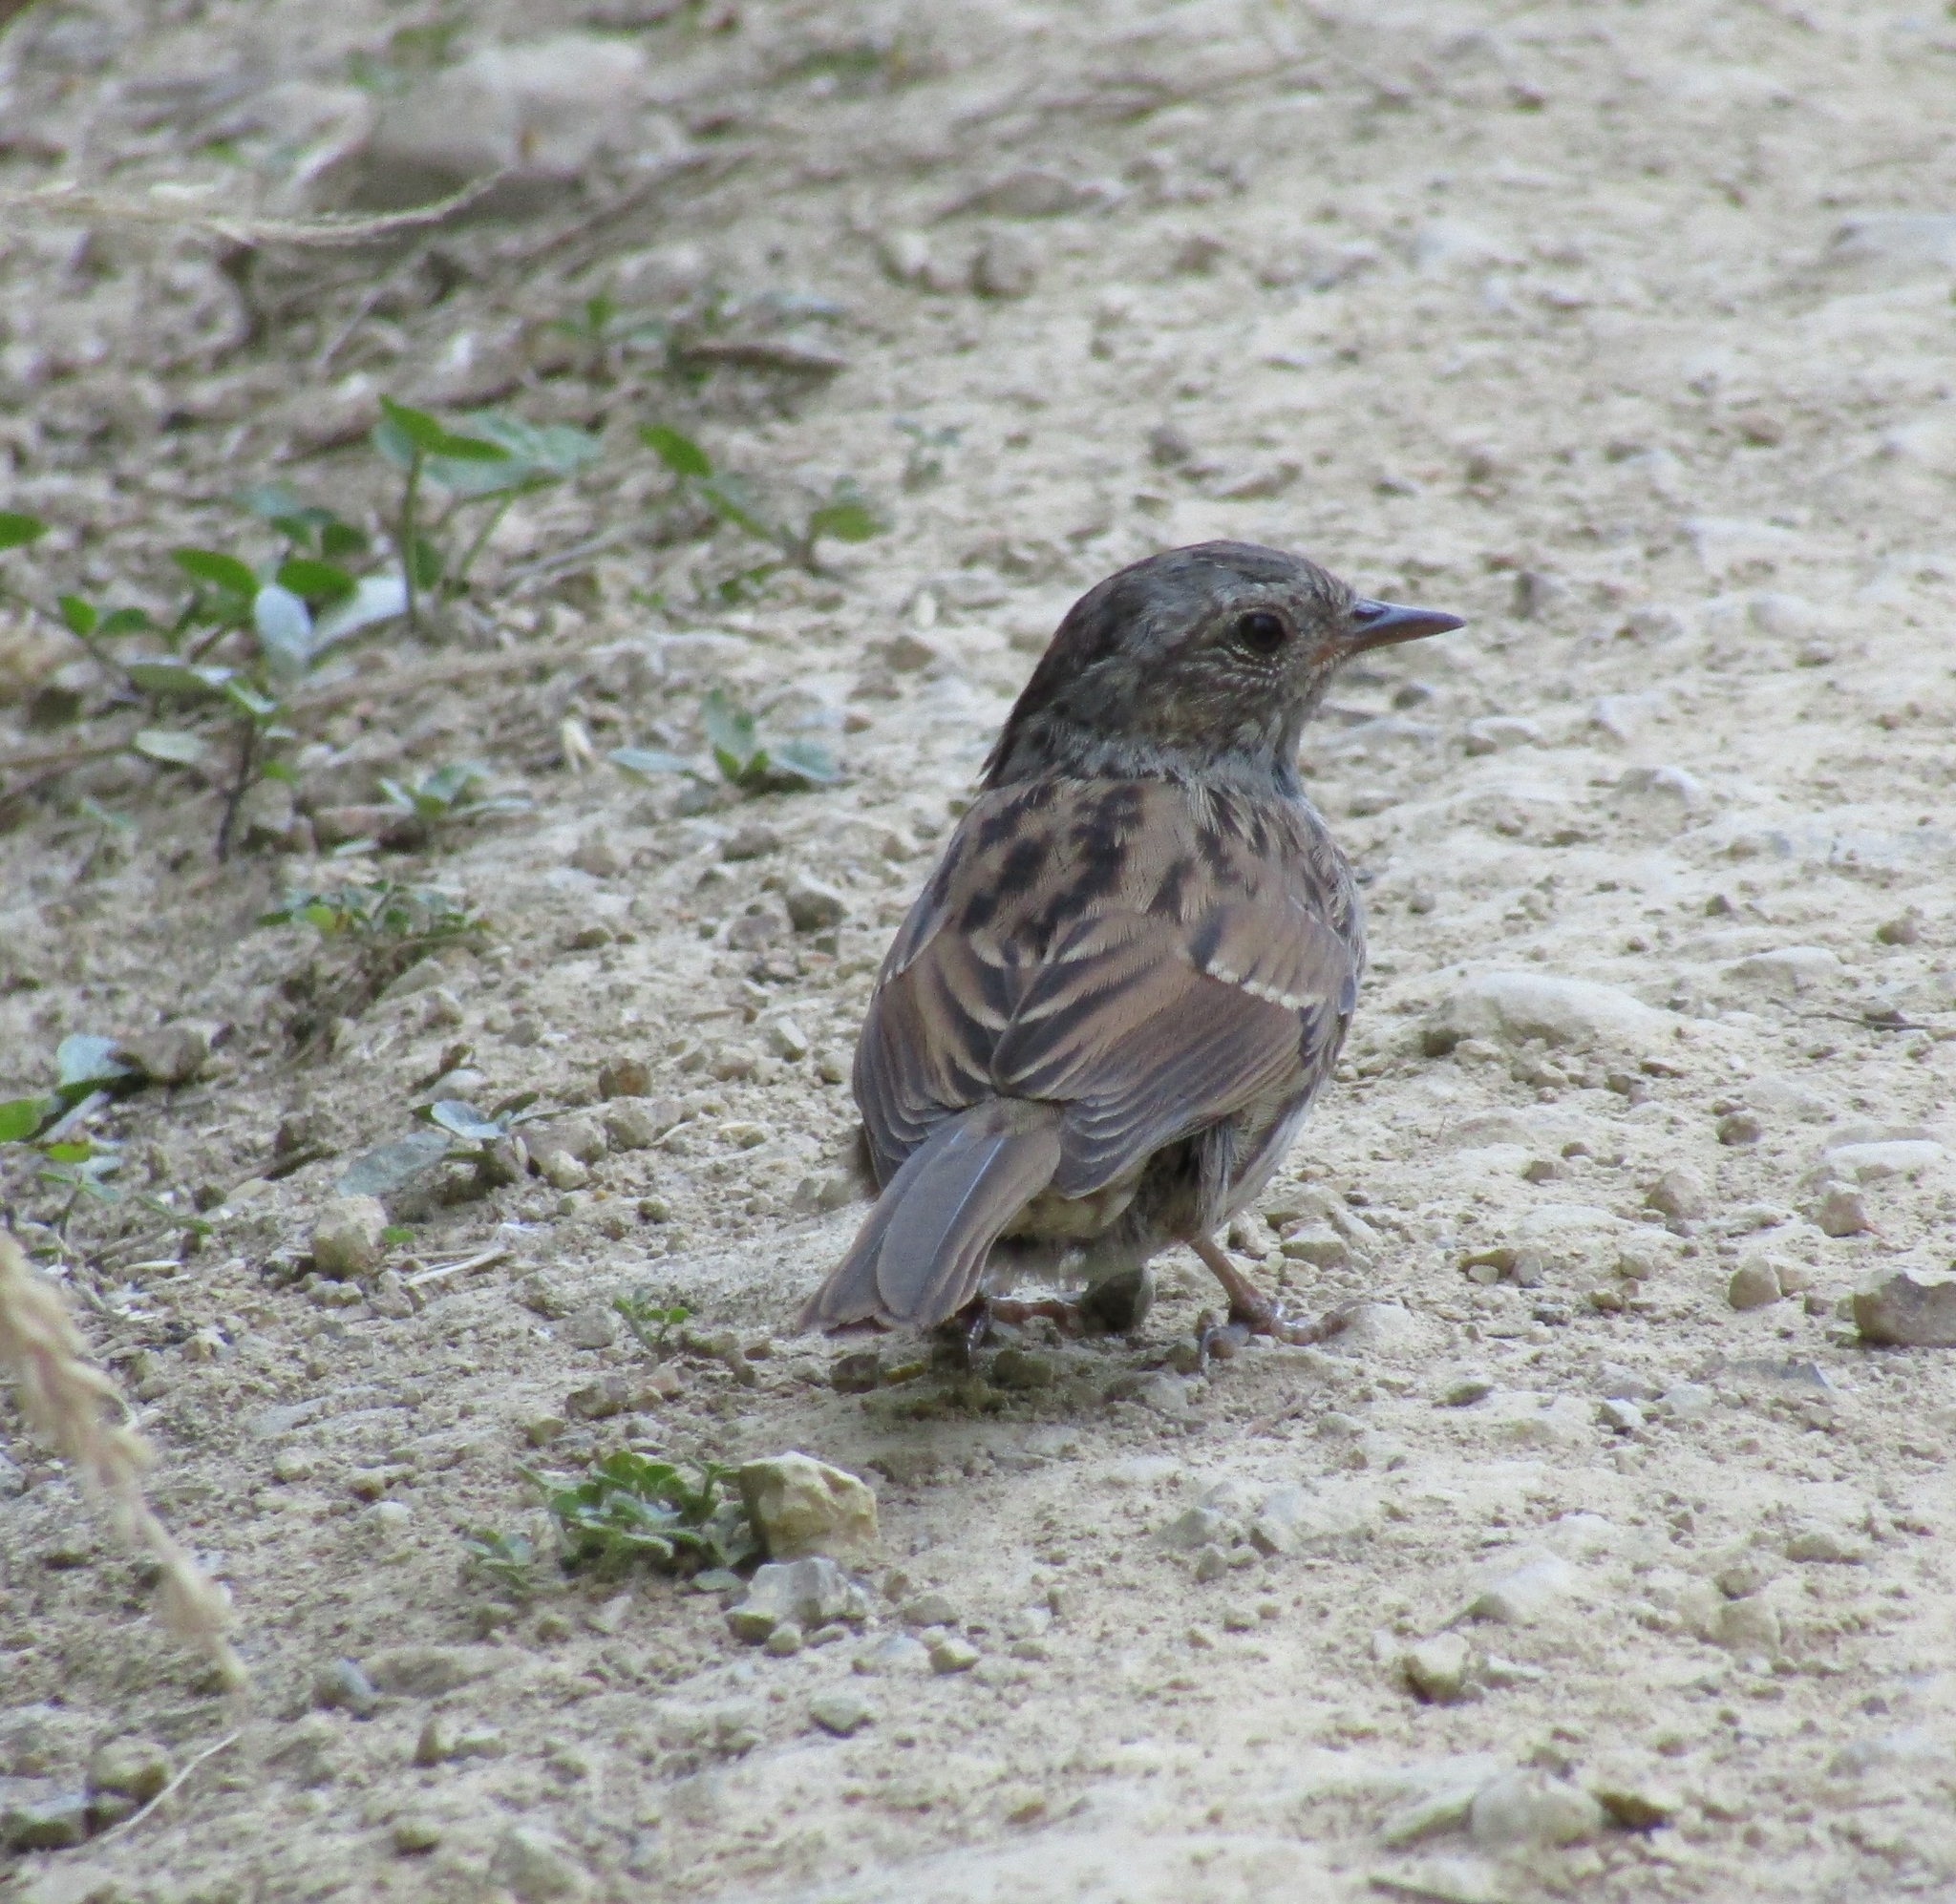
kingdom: Animalia
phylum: Chordata
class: Aves
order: Passeriformes
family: Prunellidae
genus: Prunella
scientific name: Prunella modularis
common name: Dunnock
